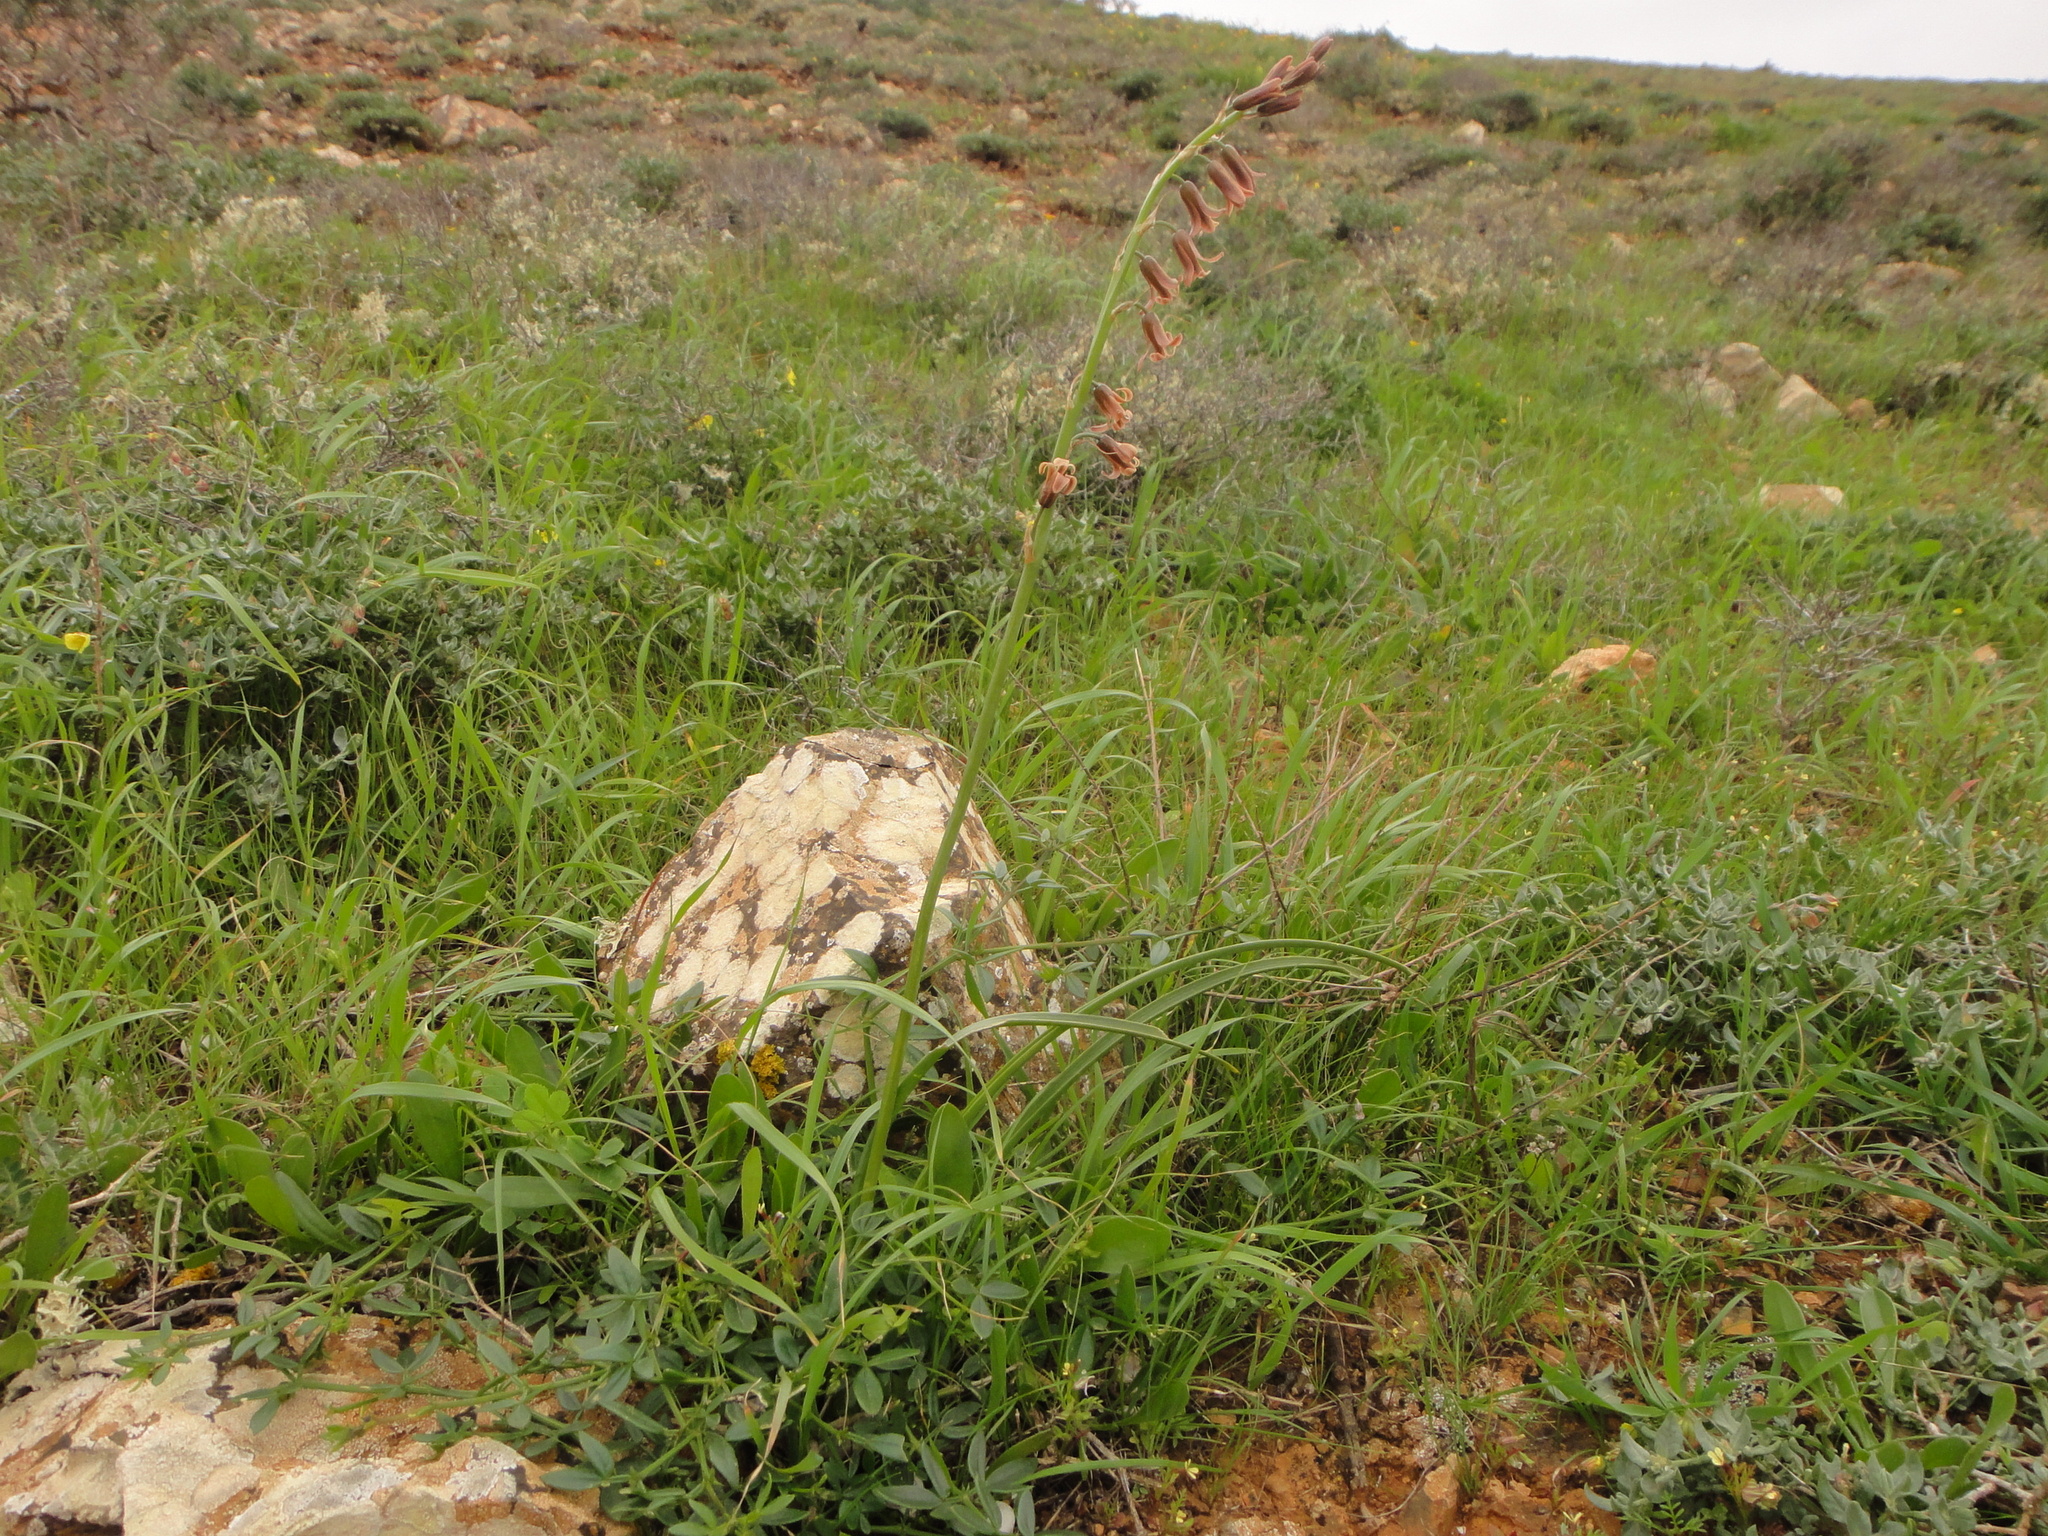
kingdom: Plantae
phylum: Tracheophyta
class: Liliopsida
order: Asparagales
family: Asparagaceae
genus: Dipcadi
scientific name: Dipcadi serotinum
